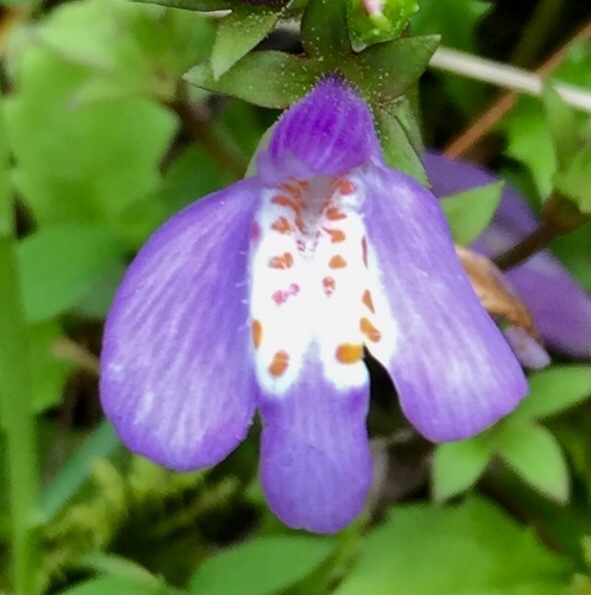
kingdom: Plantae
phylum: Tracheophyta
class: Magnoliopsida
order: Lamiales
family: Mazaceae
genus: Mazus
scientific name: Mazus miquelii
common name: Miquel's mazus
